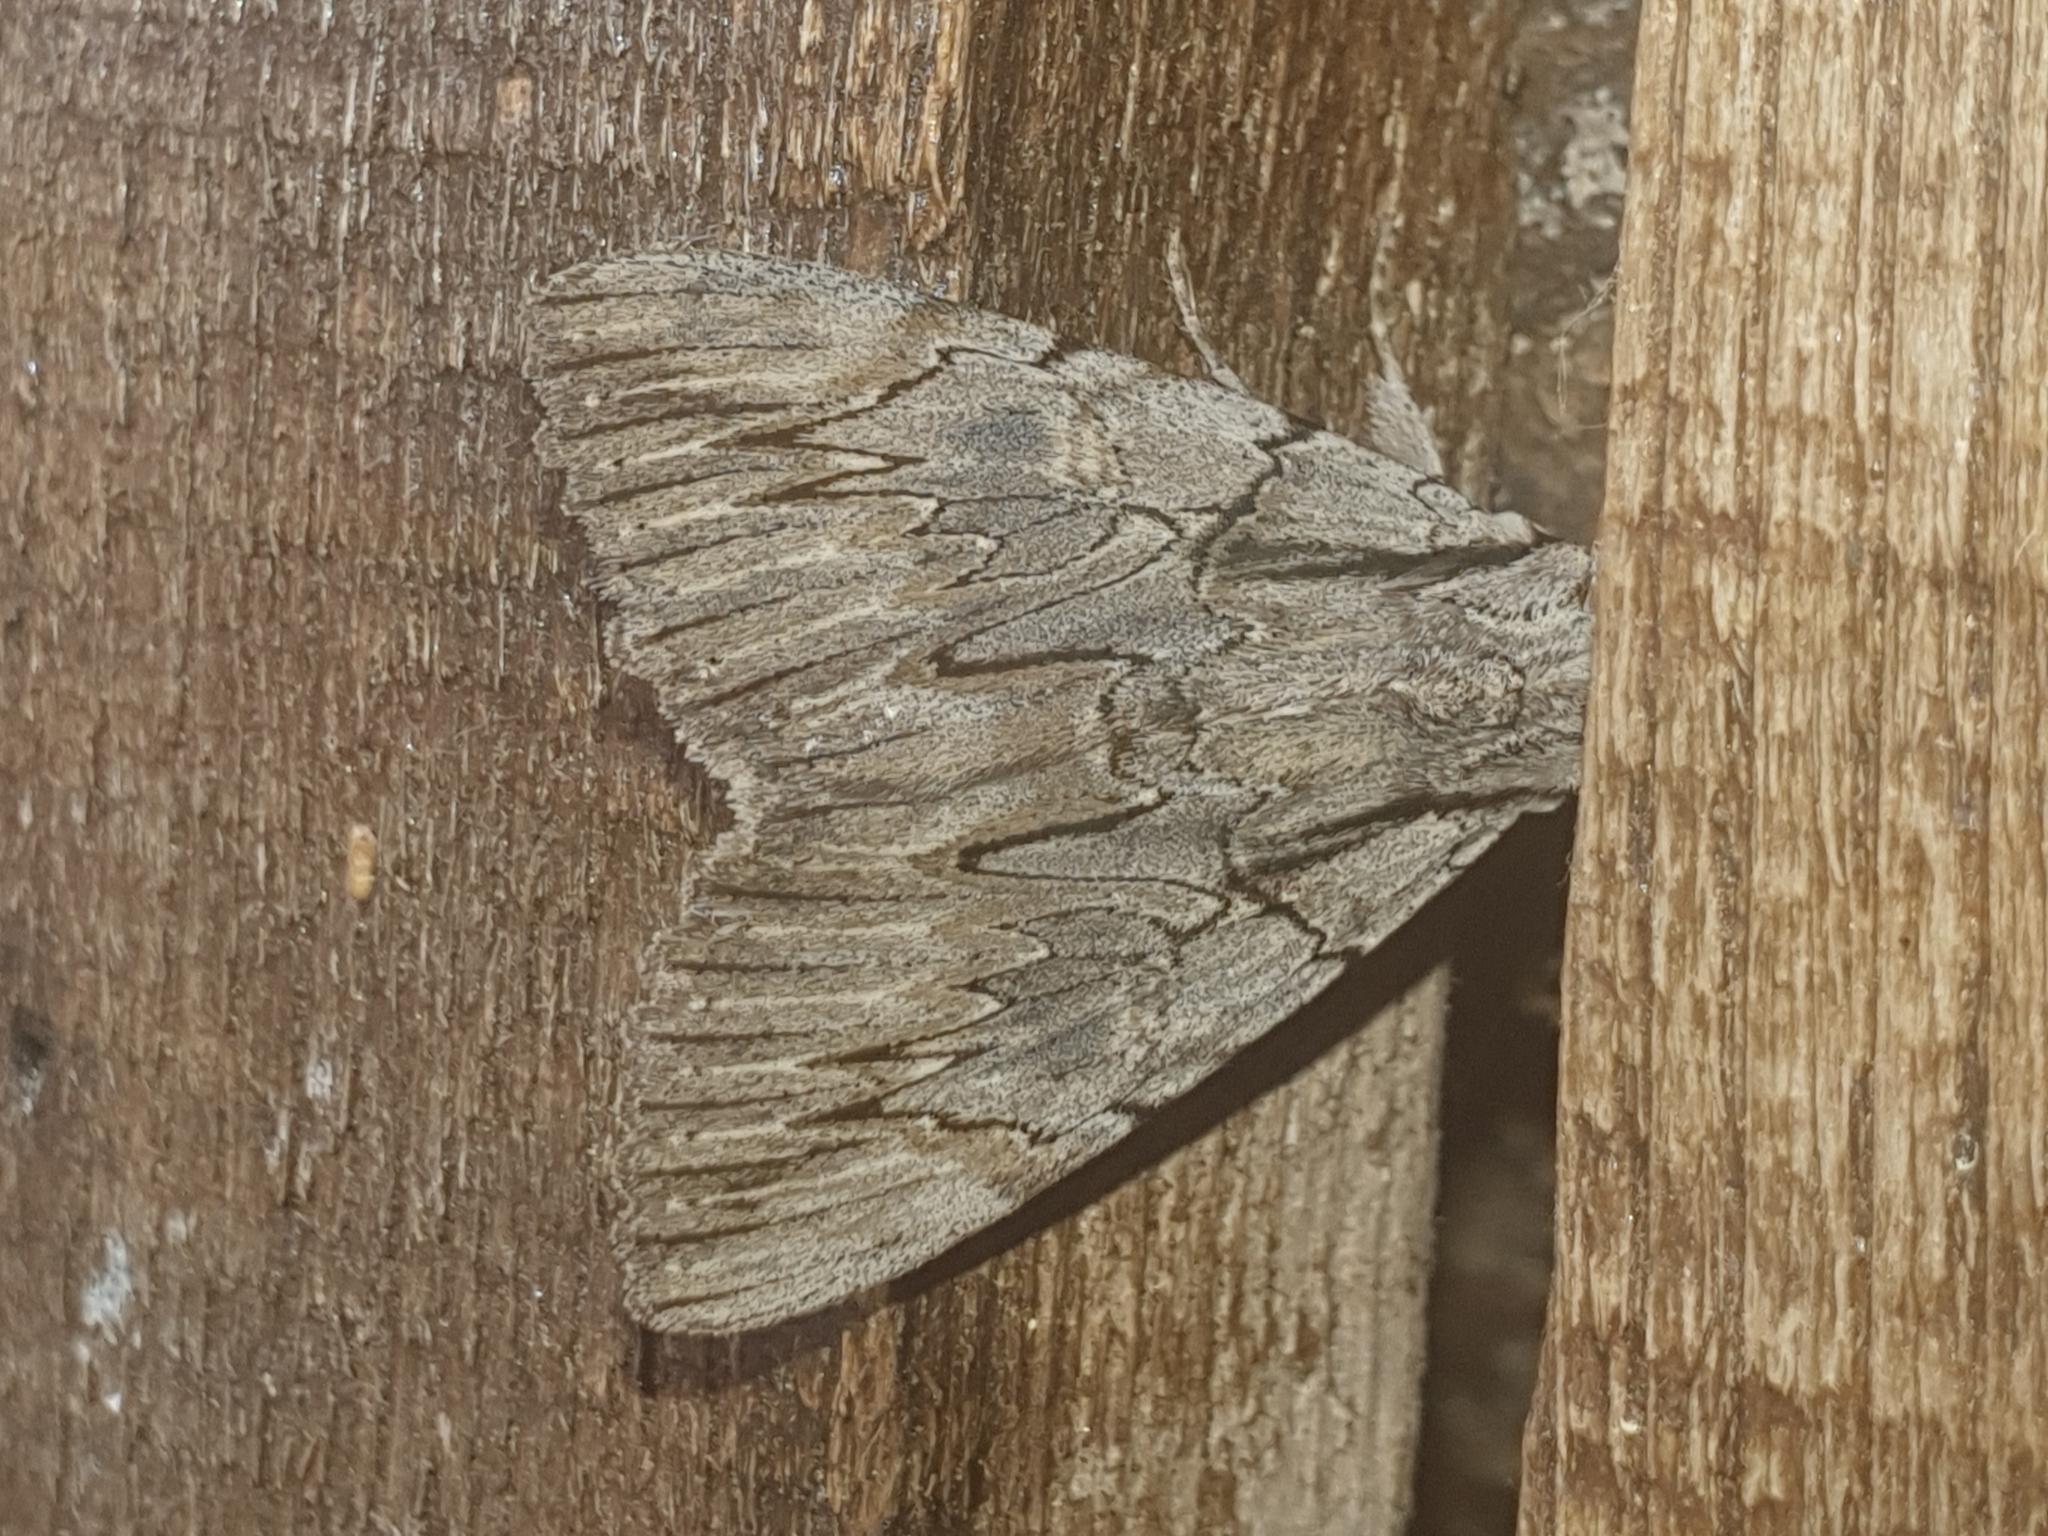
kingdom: Animalia
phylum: Arthropoda
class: Insecta
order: Lepidoptera
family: Erebidae
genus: Catocala
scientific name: Catocala optata
